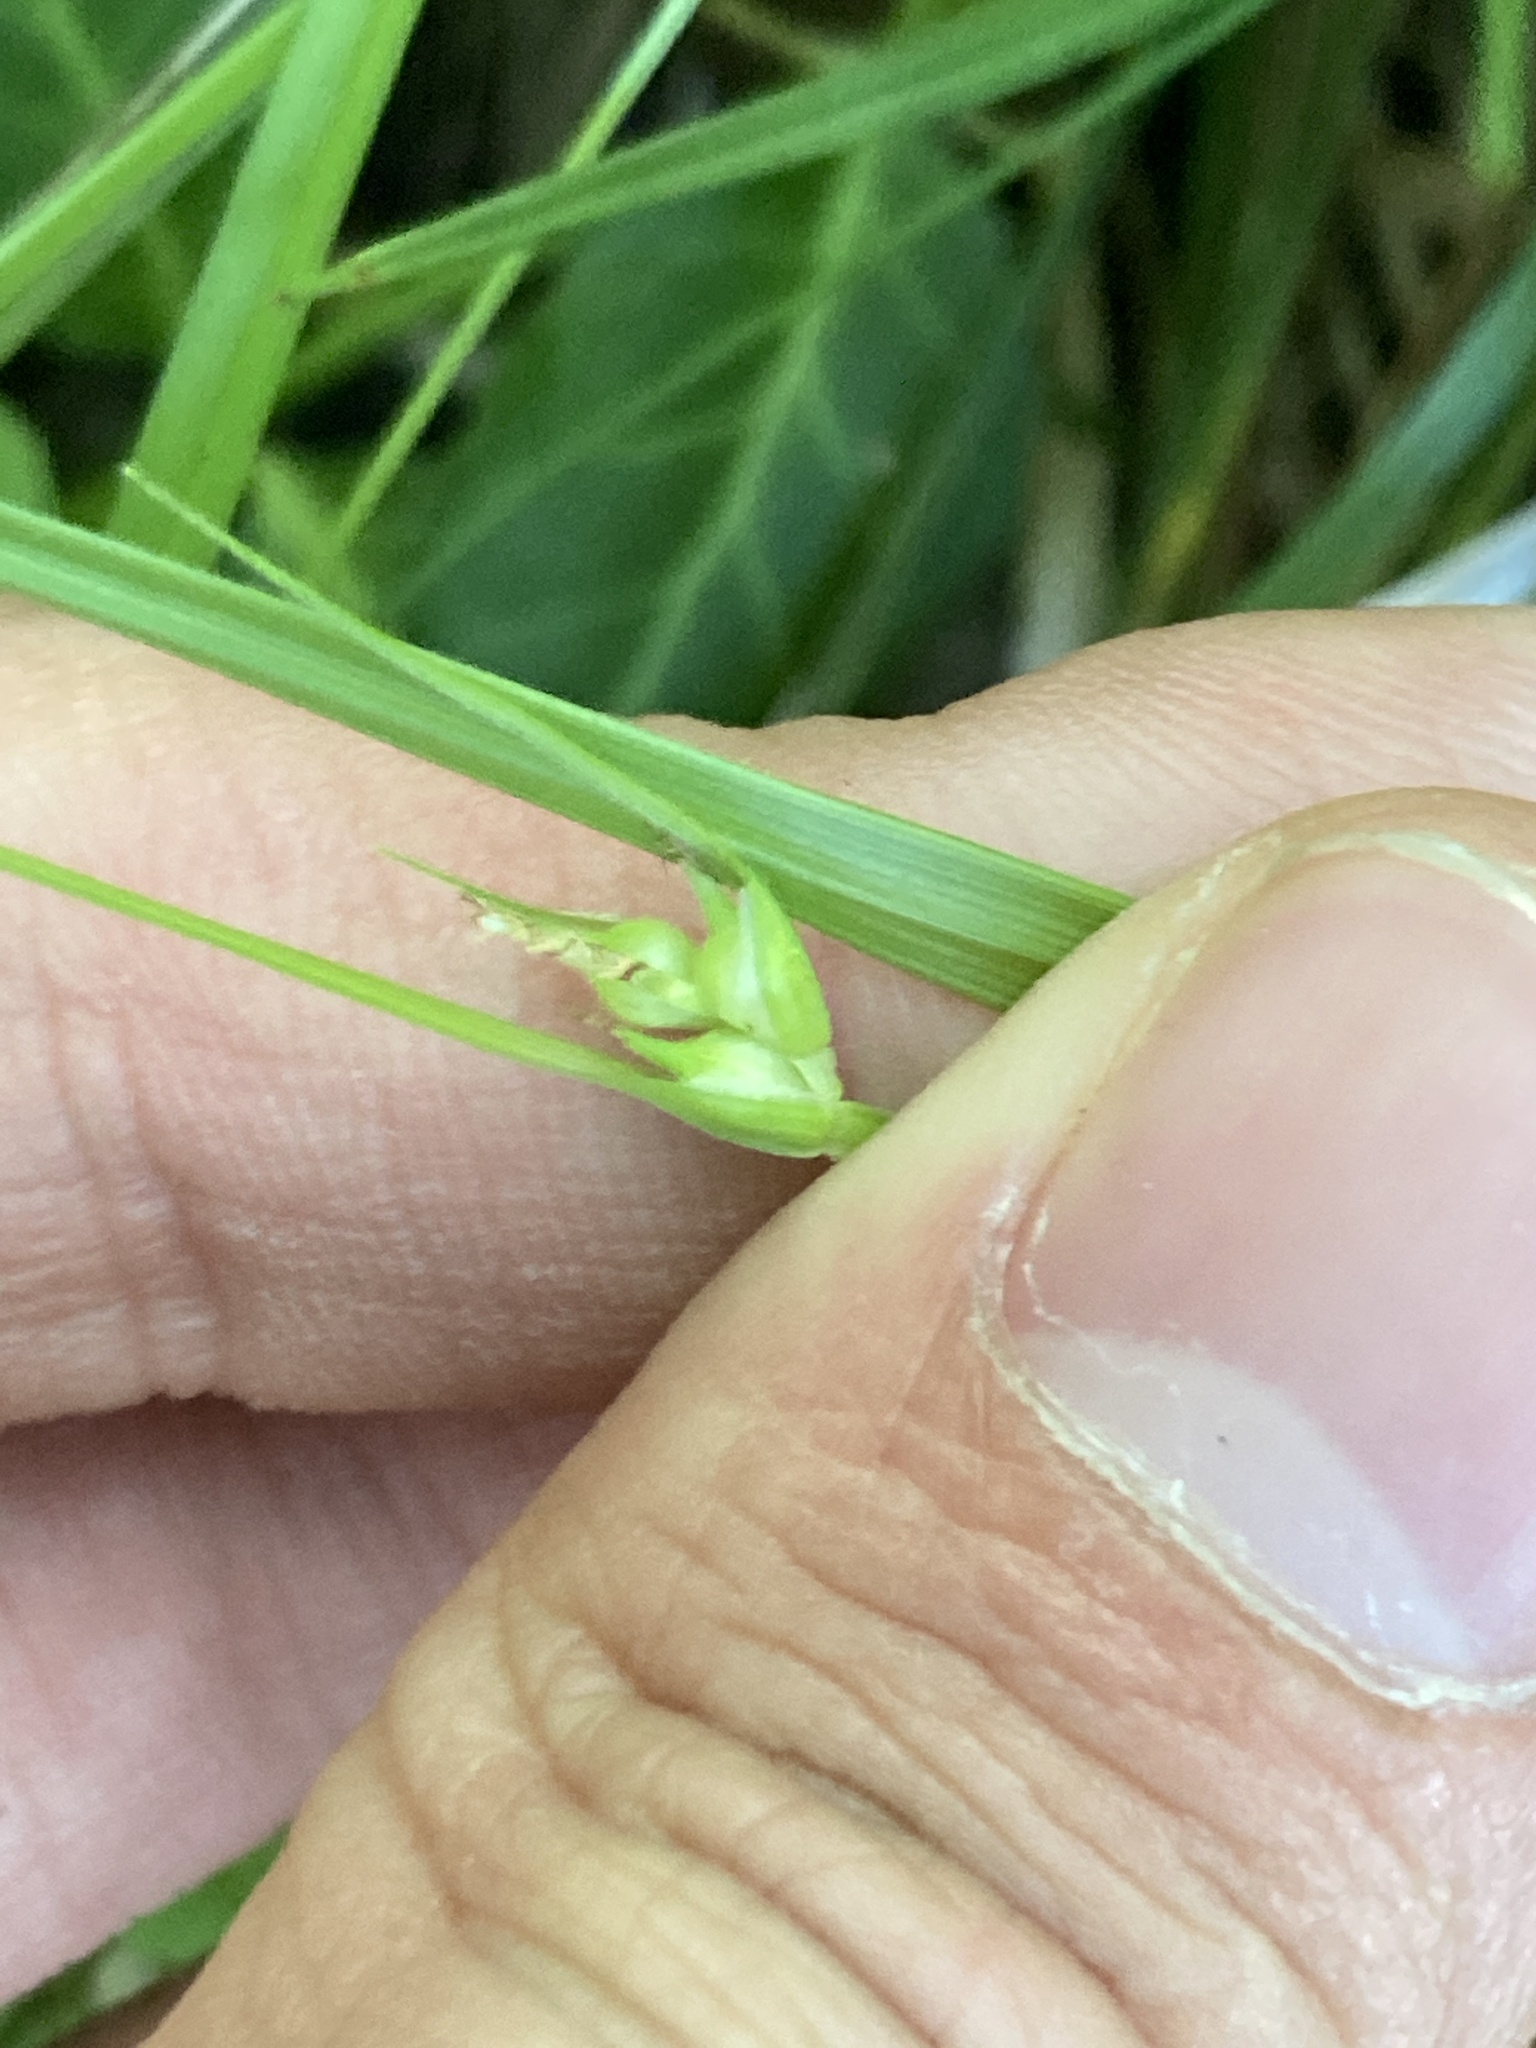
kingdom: Plantae
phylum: Tracheophyta
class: Liliopsida
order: Poales
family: Cyperaceae
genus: Carex
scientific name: Carex jamesii
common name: Grass sedge
